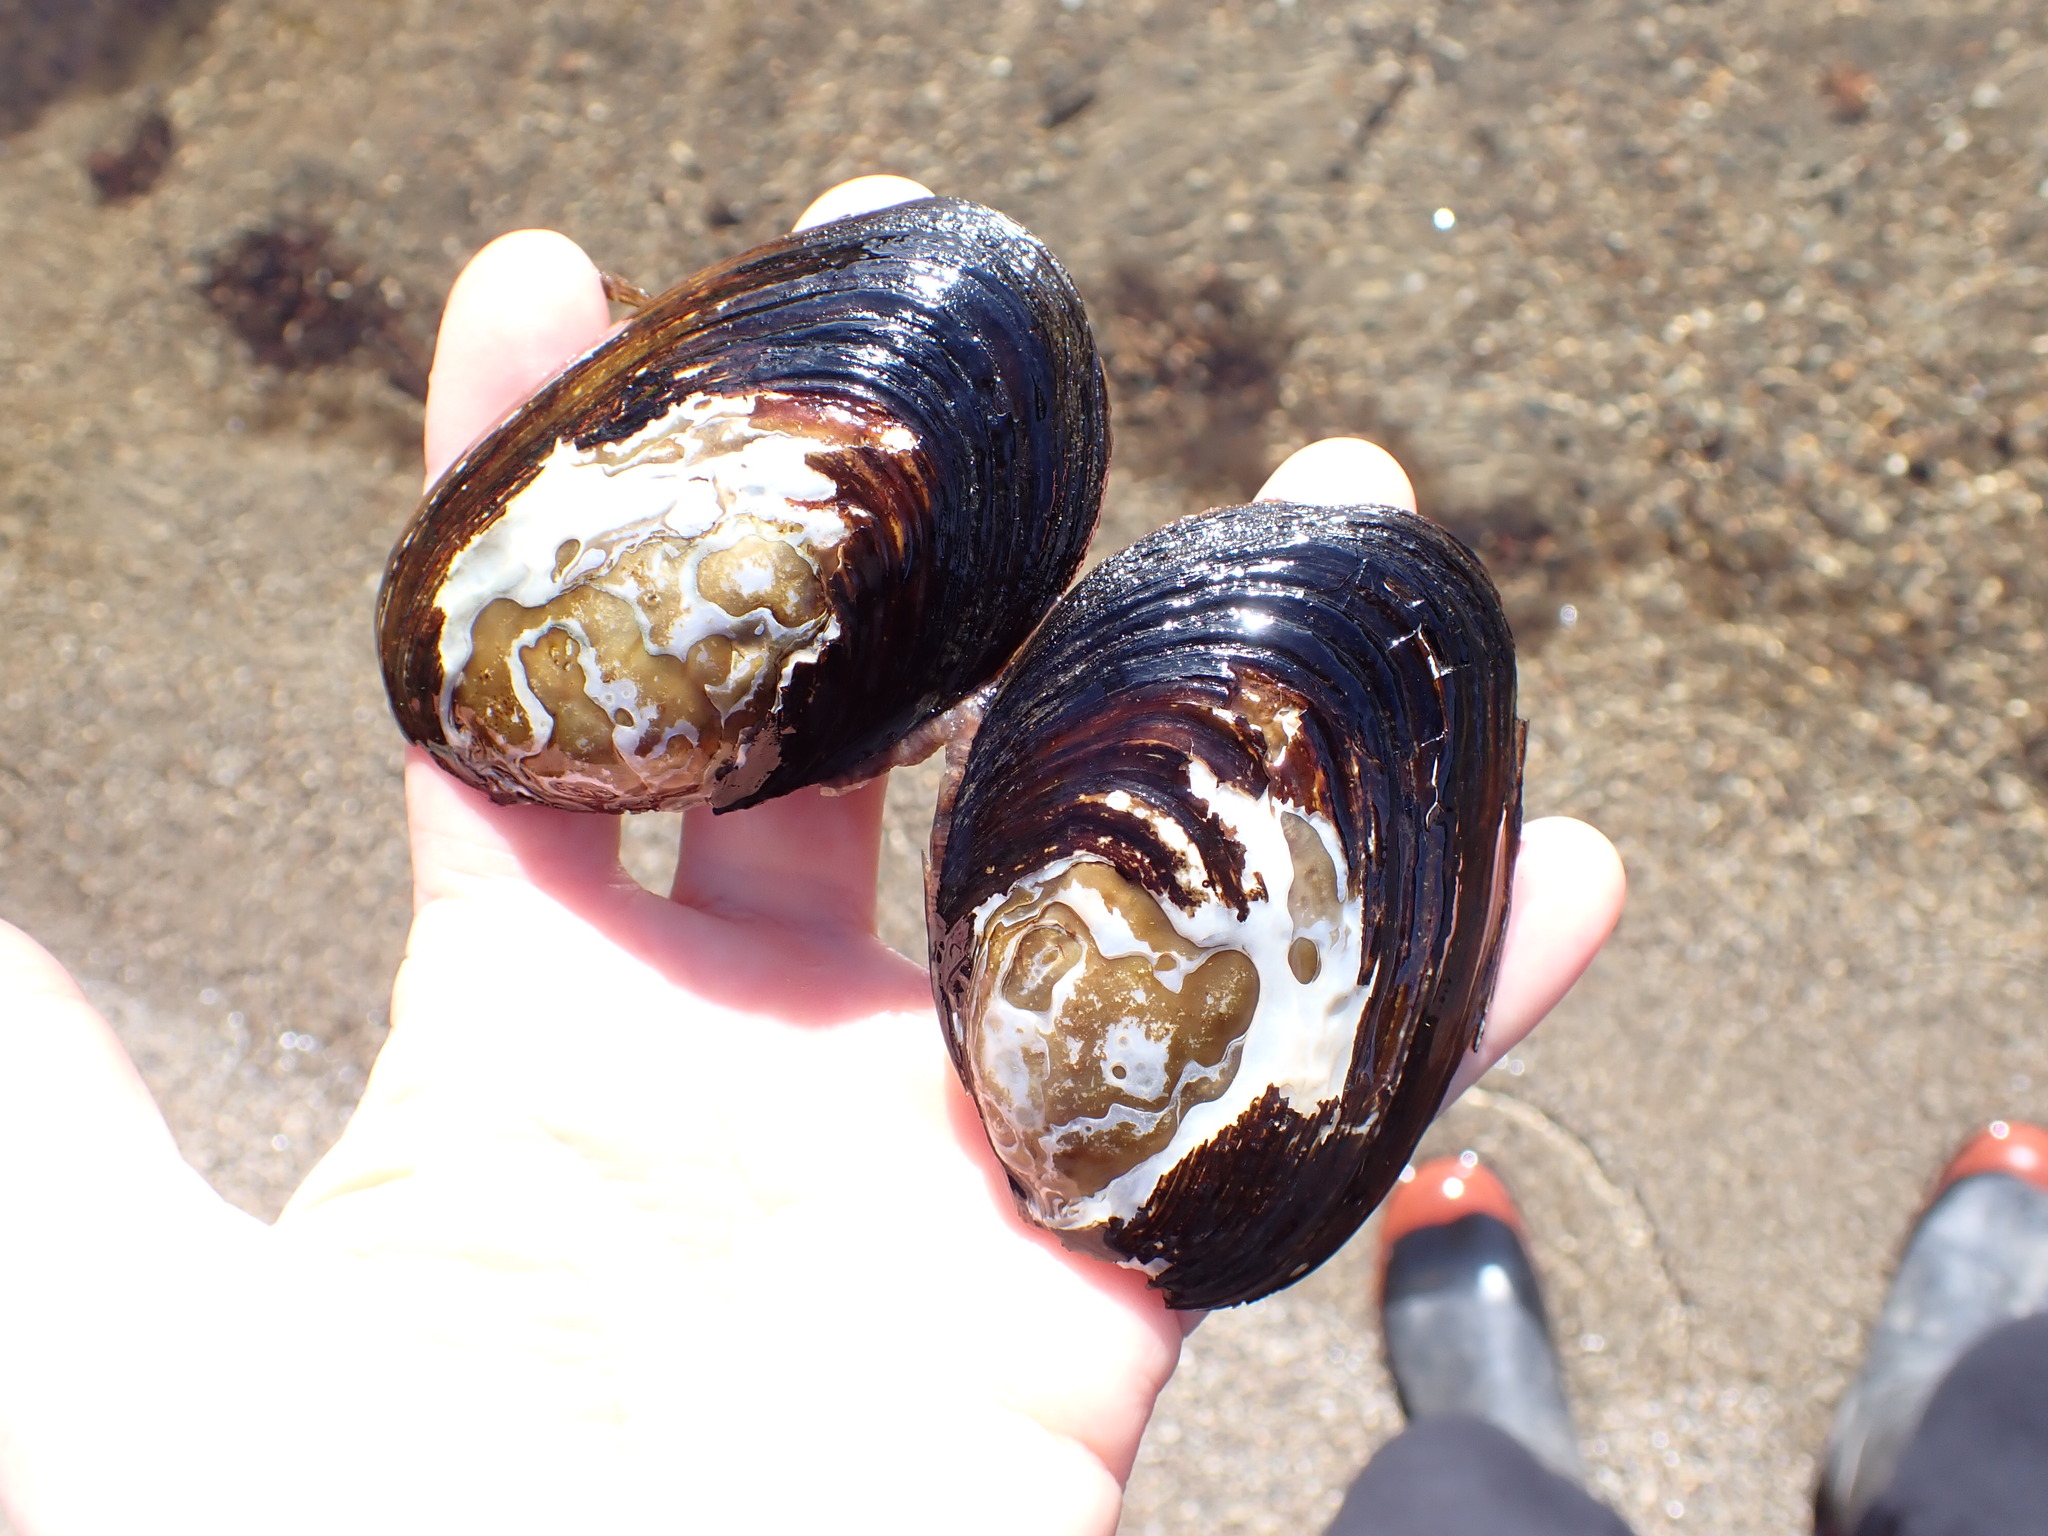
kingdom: Animalia
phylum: Mollusca
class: Bivalvia
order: Unionida
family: Hyriidae
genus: Echyridella
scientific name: Echyridella menziesii
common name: New zealand freshwater mussel
